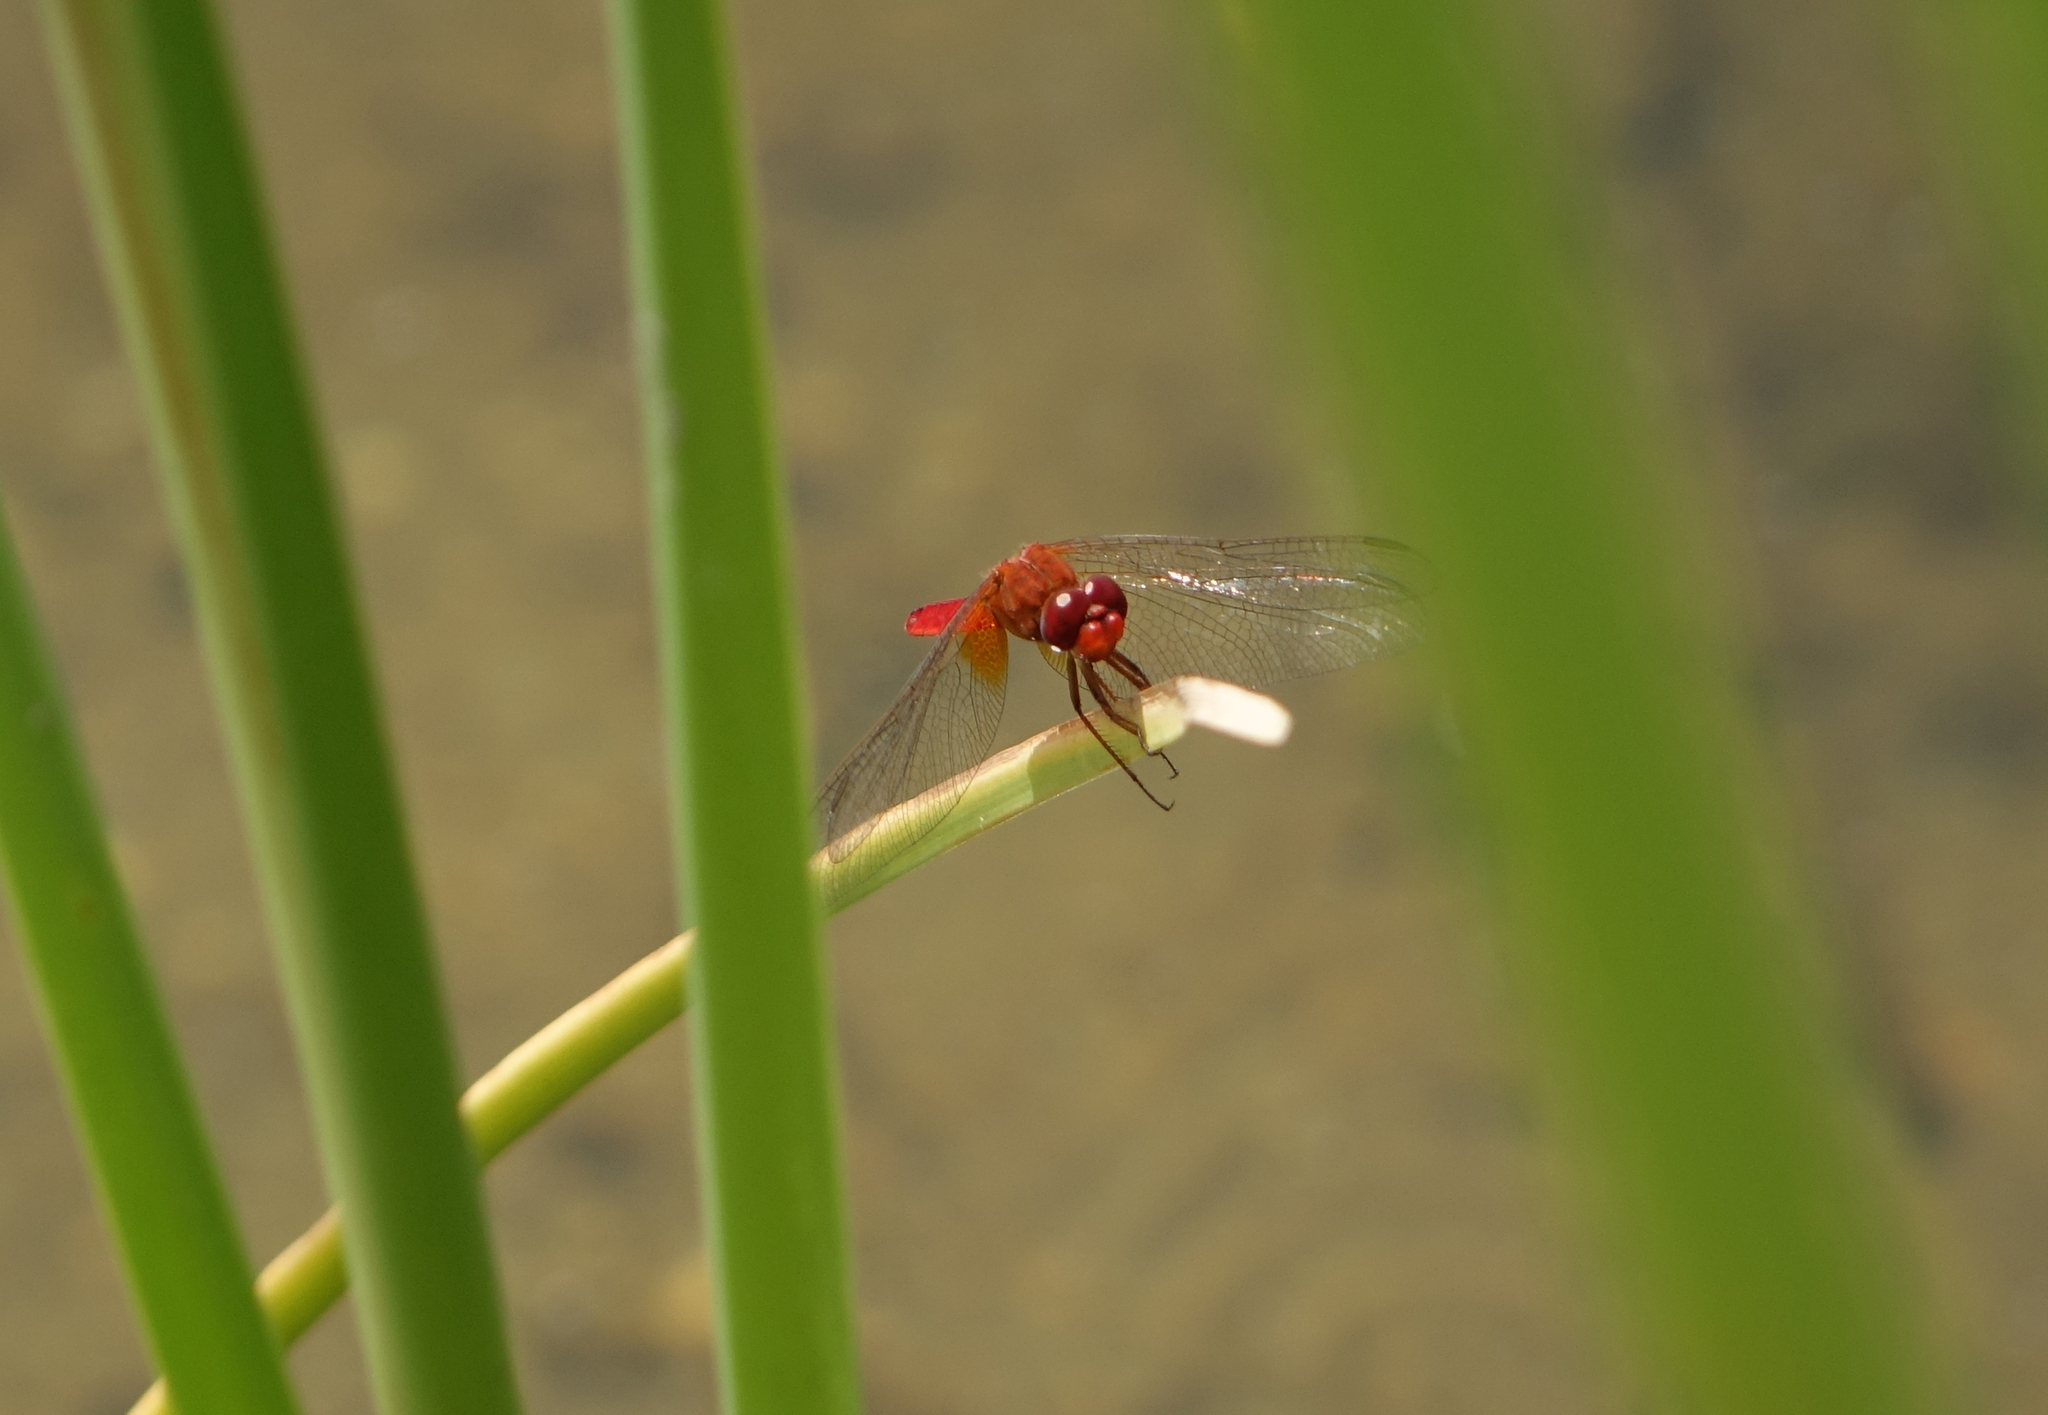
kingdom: Animalia
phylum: Arthropoda
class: Insecta
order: Odonata
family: Libellulidae
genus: Crocothemis
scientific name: Crocothemis erythraea
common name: Scarlet dragonfly
